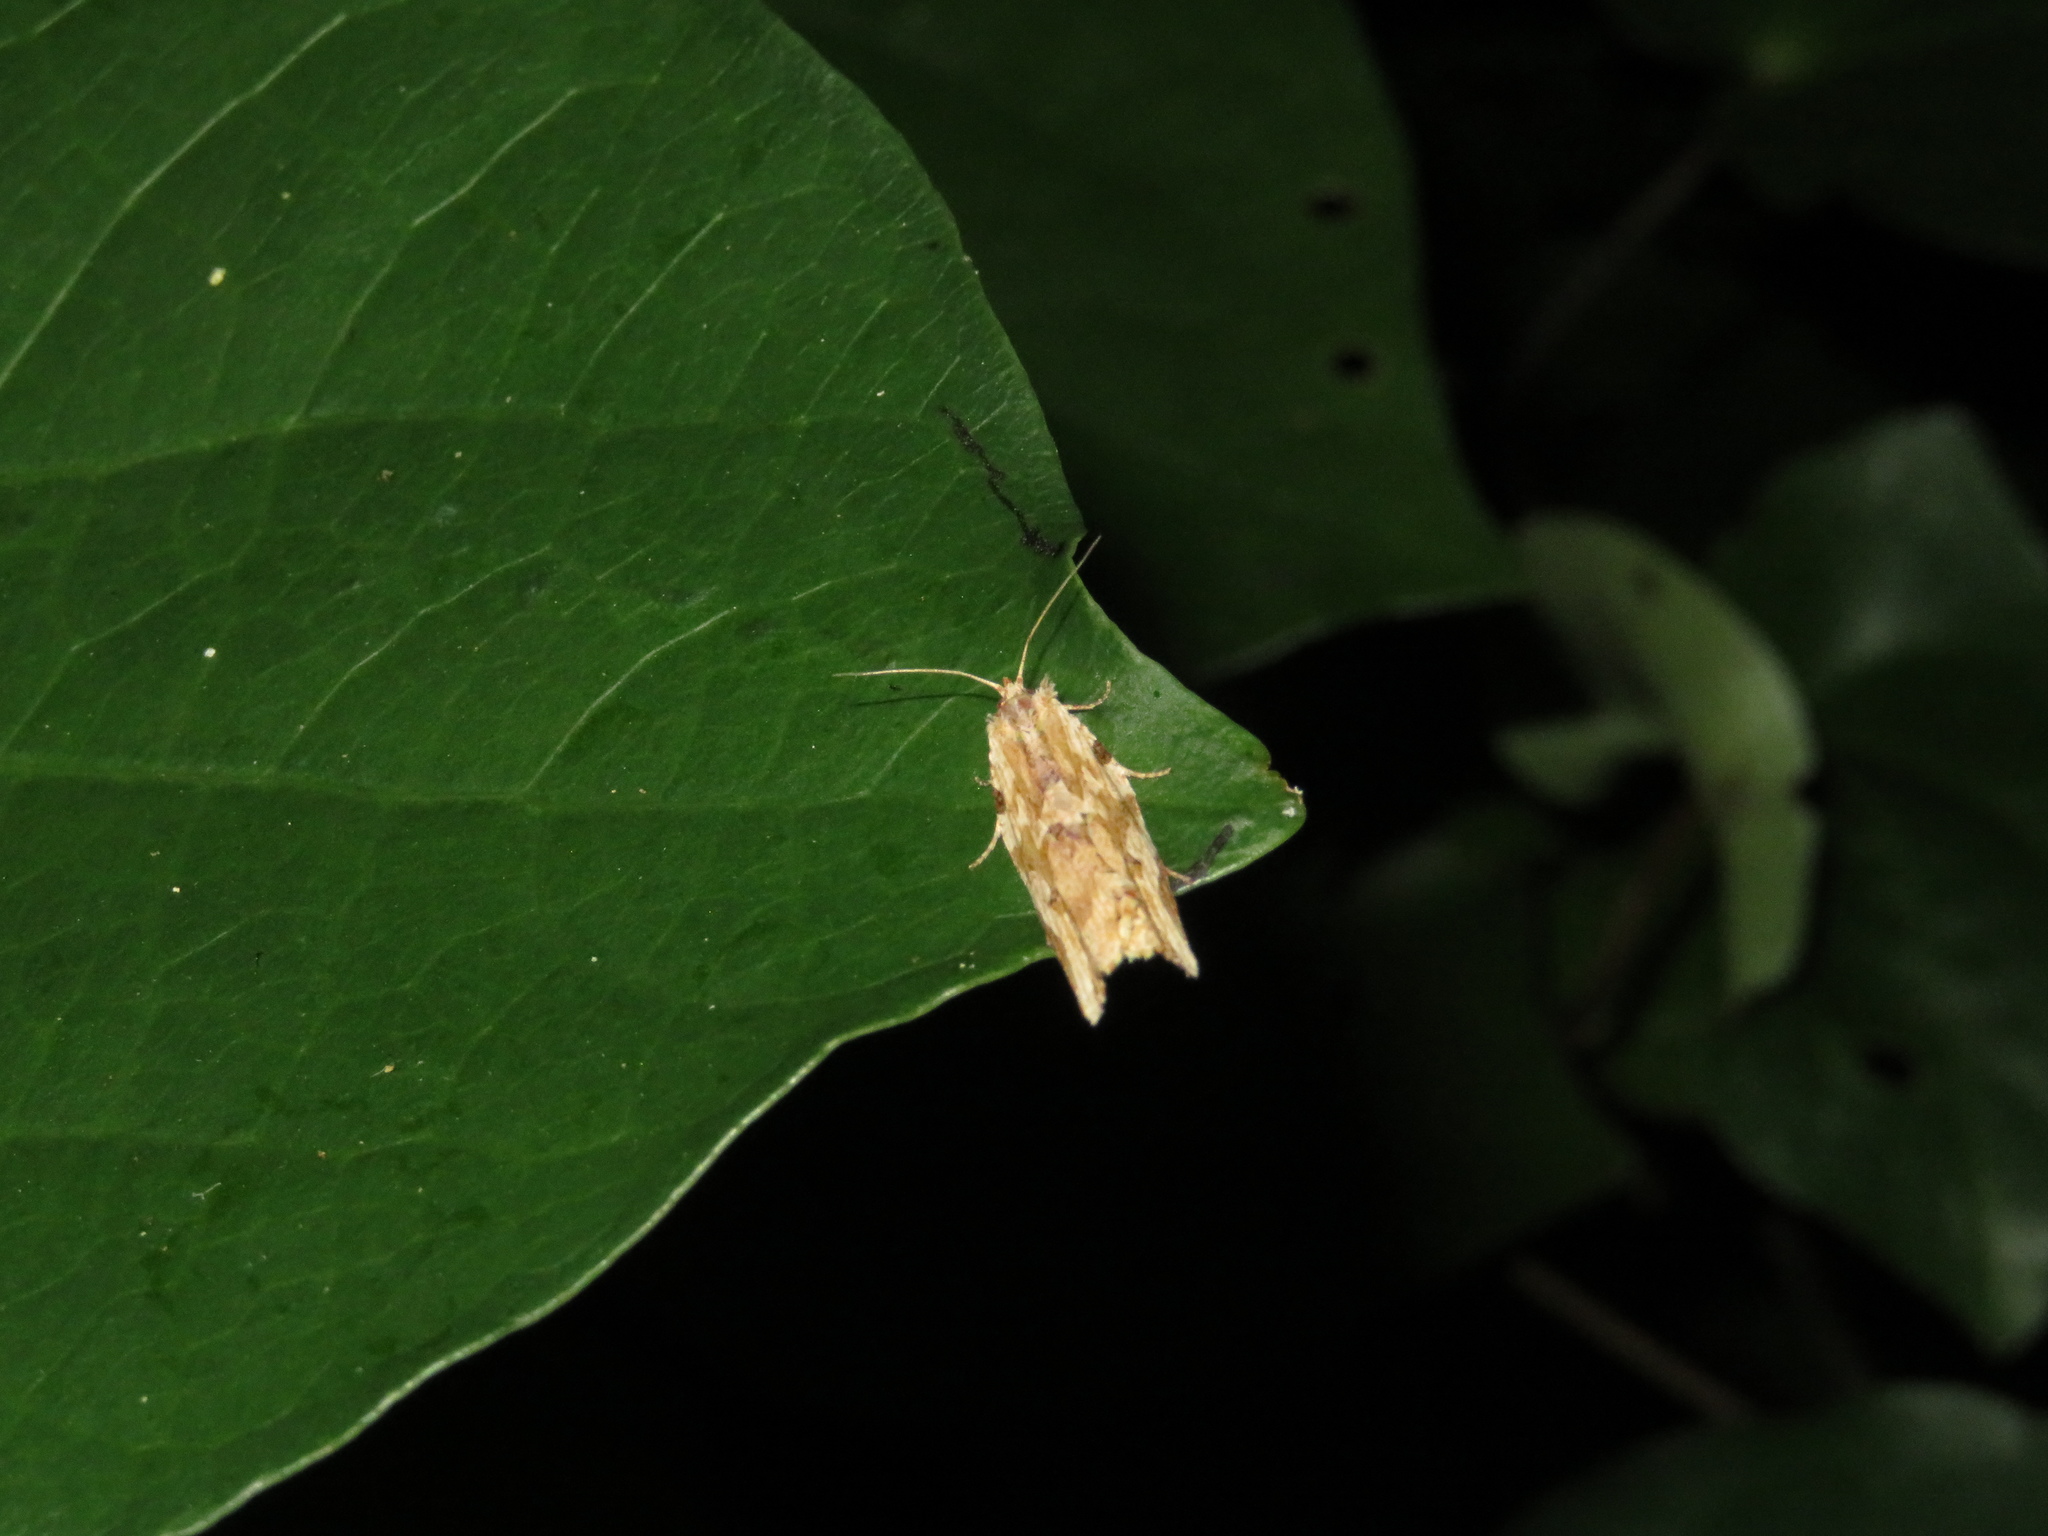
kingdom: Animalia
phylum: Arthropoda
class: Insecta
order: Lepidoptera
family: Tortricidae
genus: Epalxiphora
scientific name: Epalxiphora axenana
